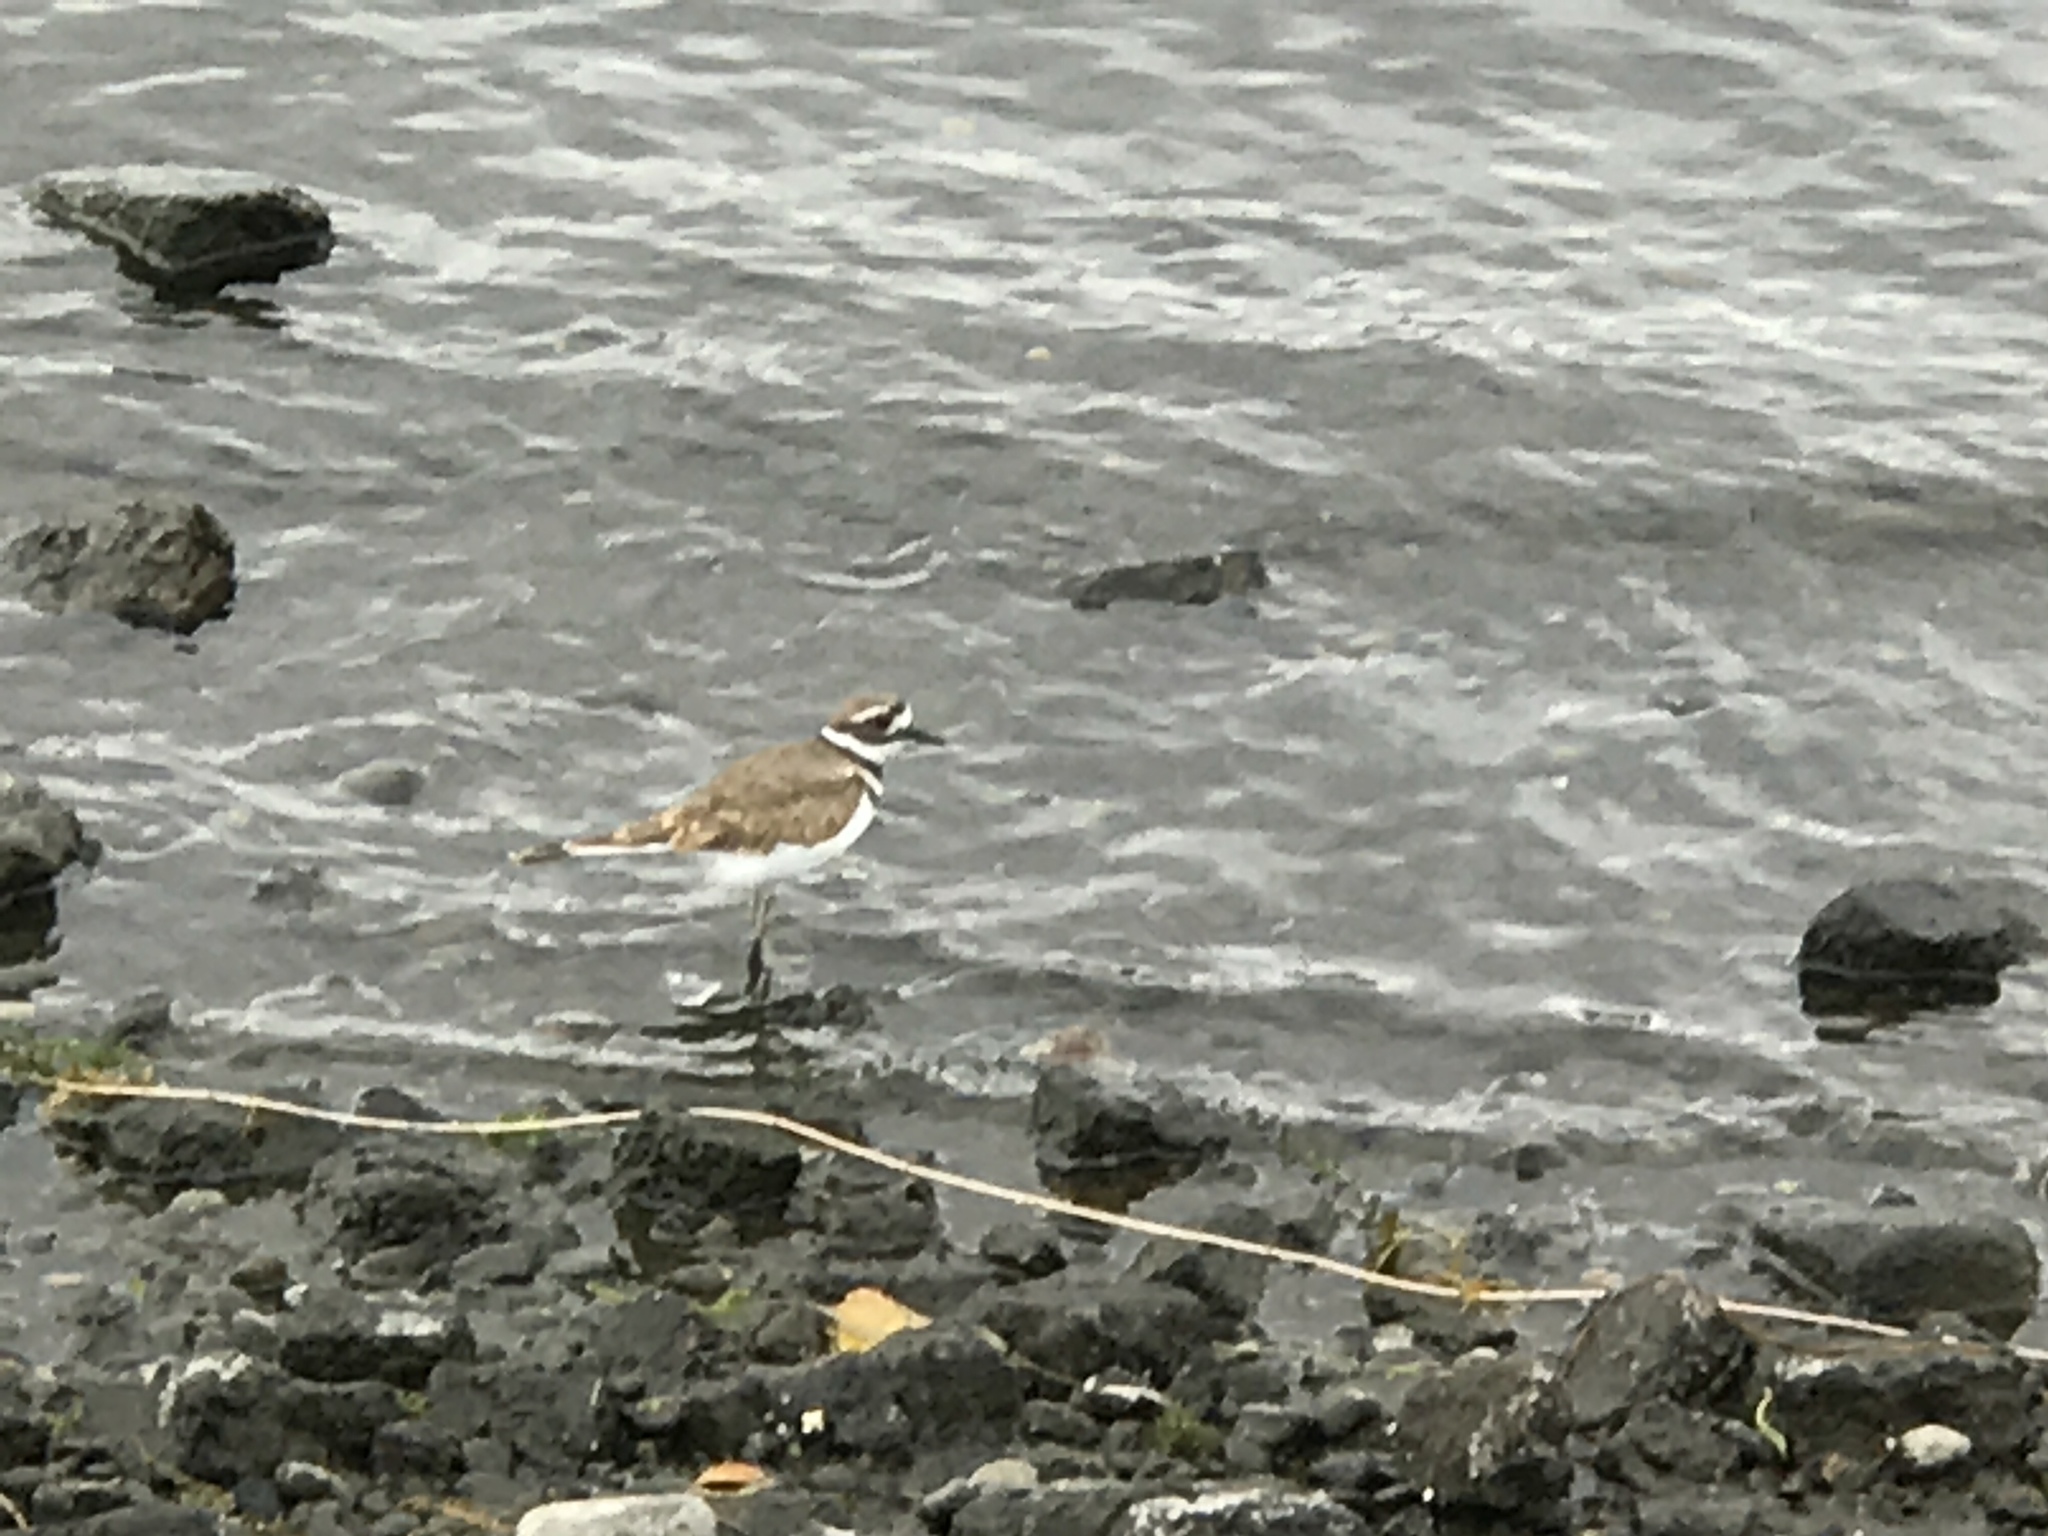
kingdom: Animalia
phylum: Chordata
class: Aves
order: Charadriiformes
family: Charadriidae
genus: Charadrius
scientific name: Charadrius vociferus
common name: Killdeer
